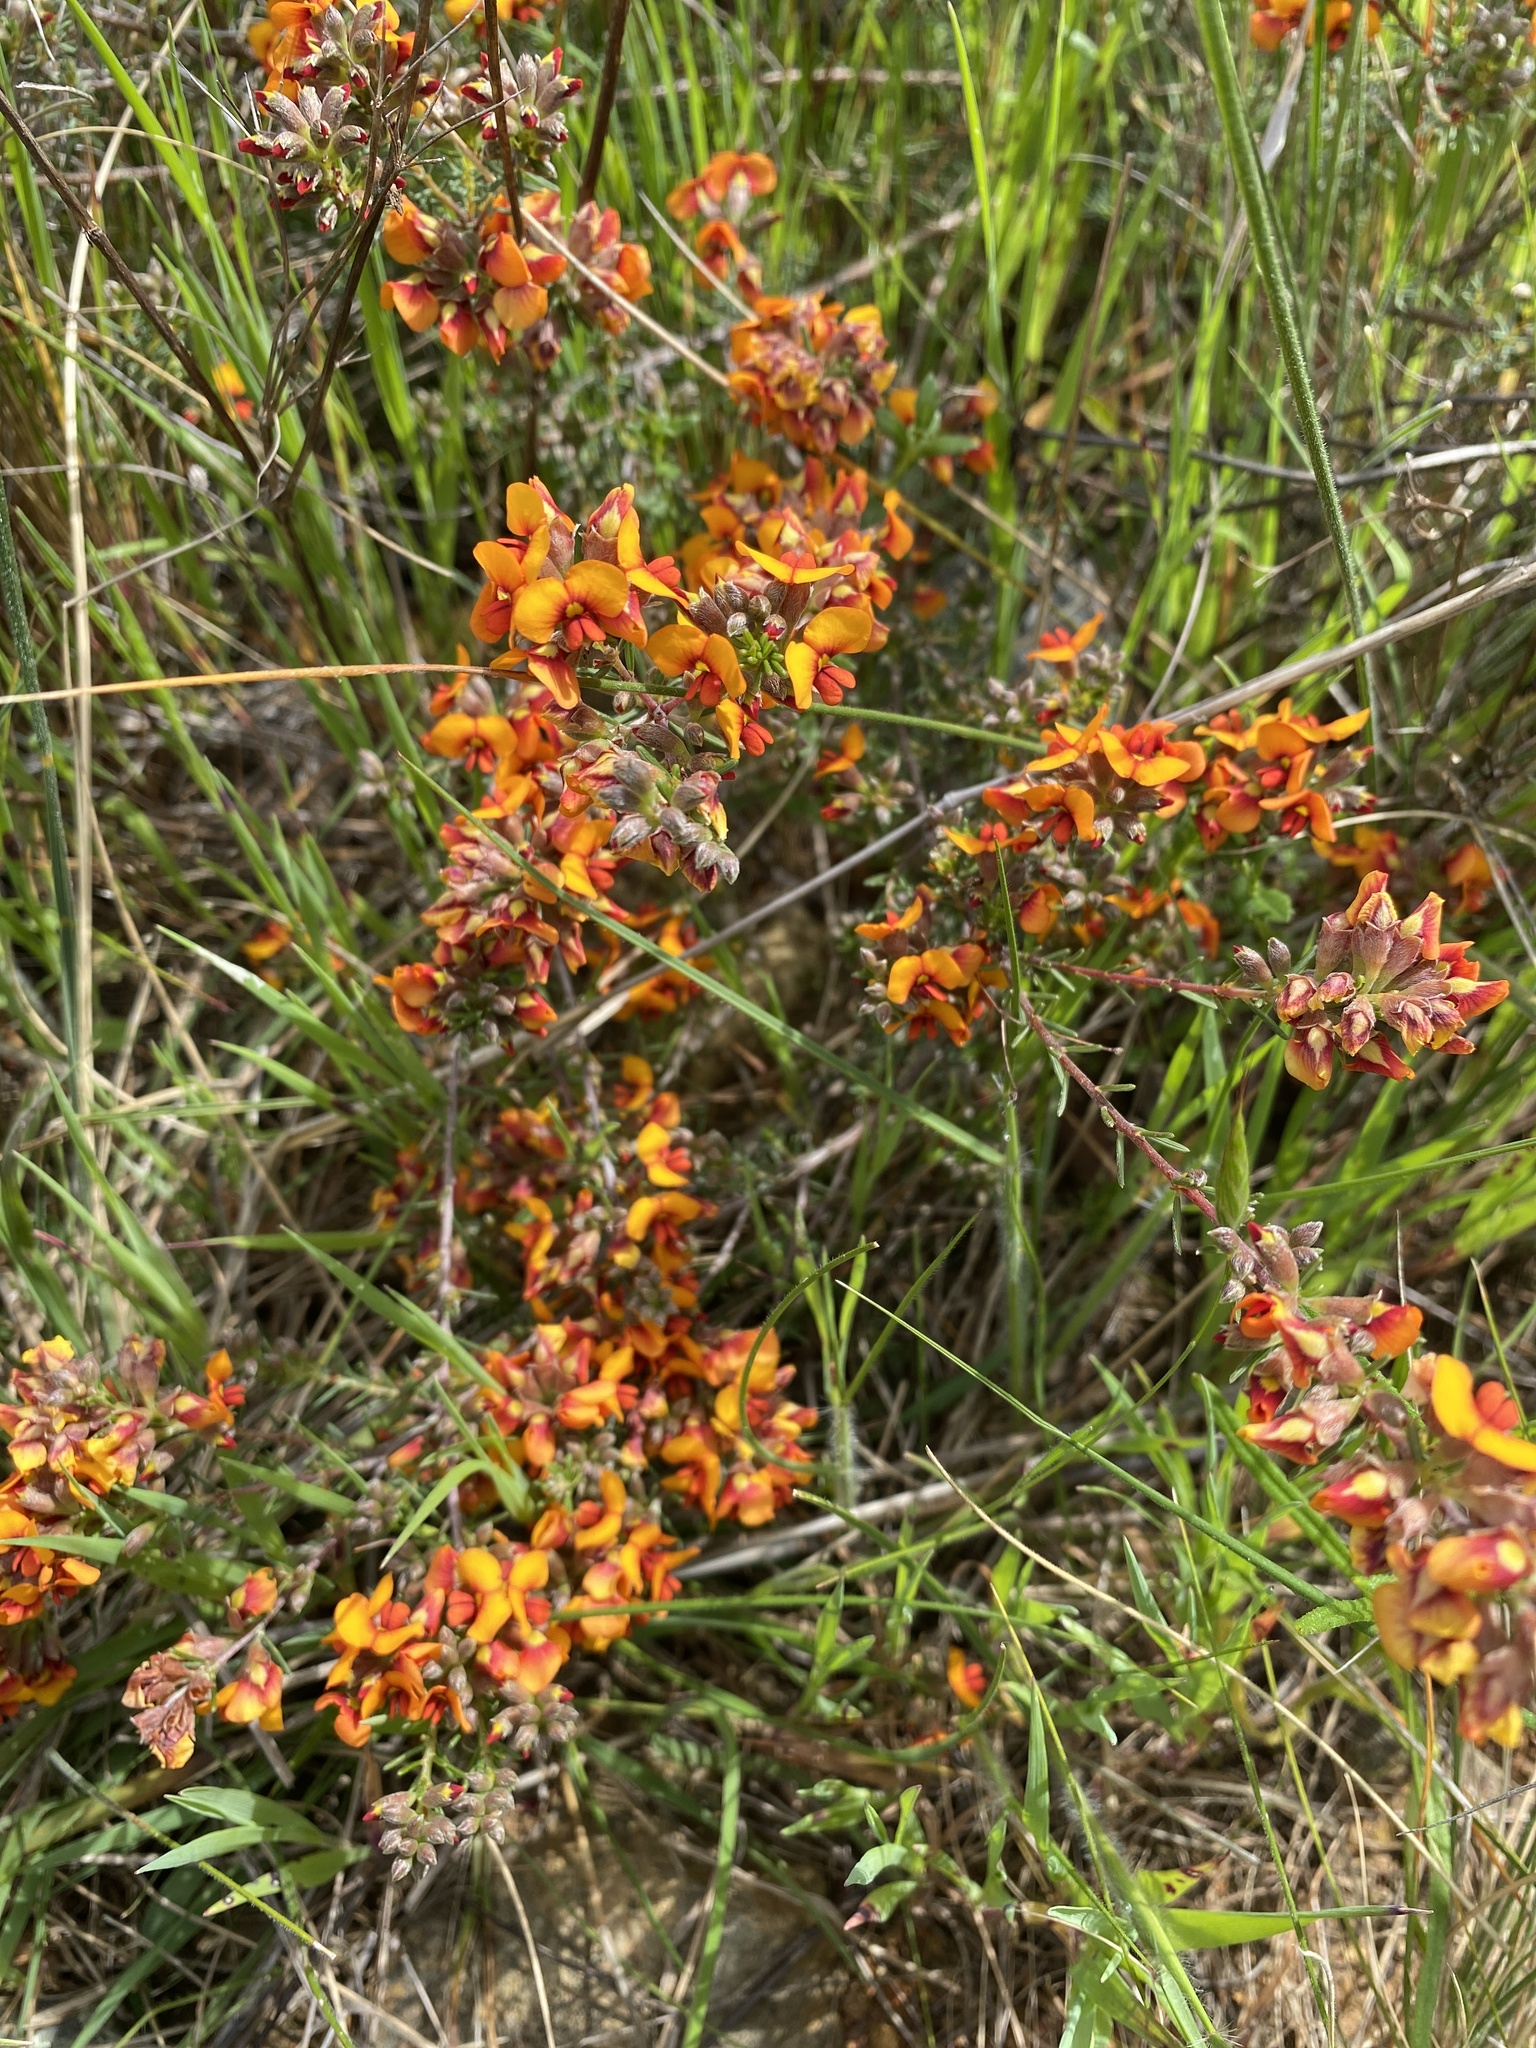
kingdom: Plantae
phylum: Tracheophyta
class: Magnoliopsida
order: Fabales
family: Fabaceae
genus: Dillwynia
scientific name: Dillwynia
